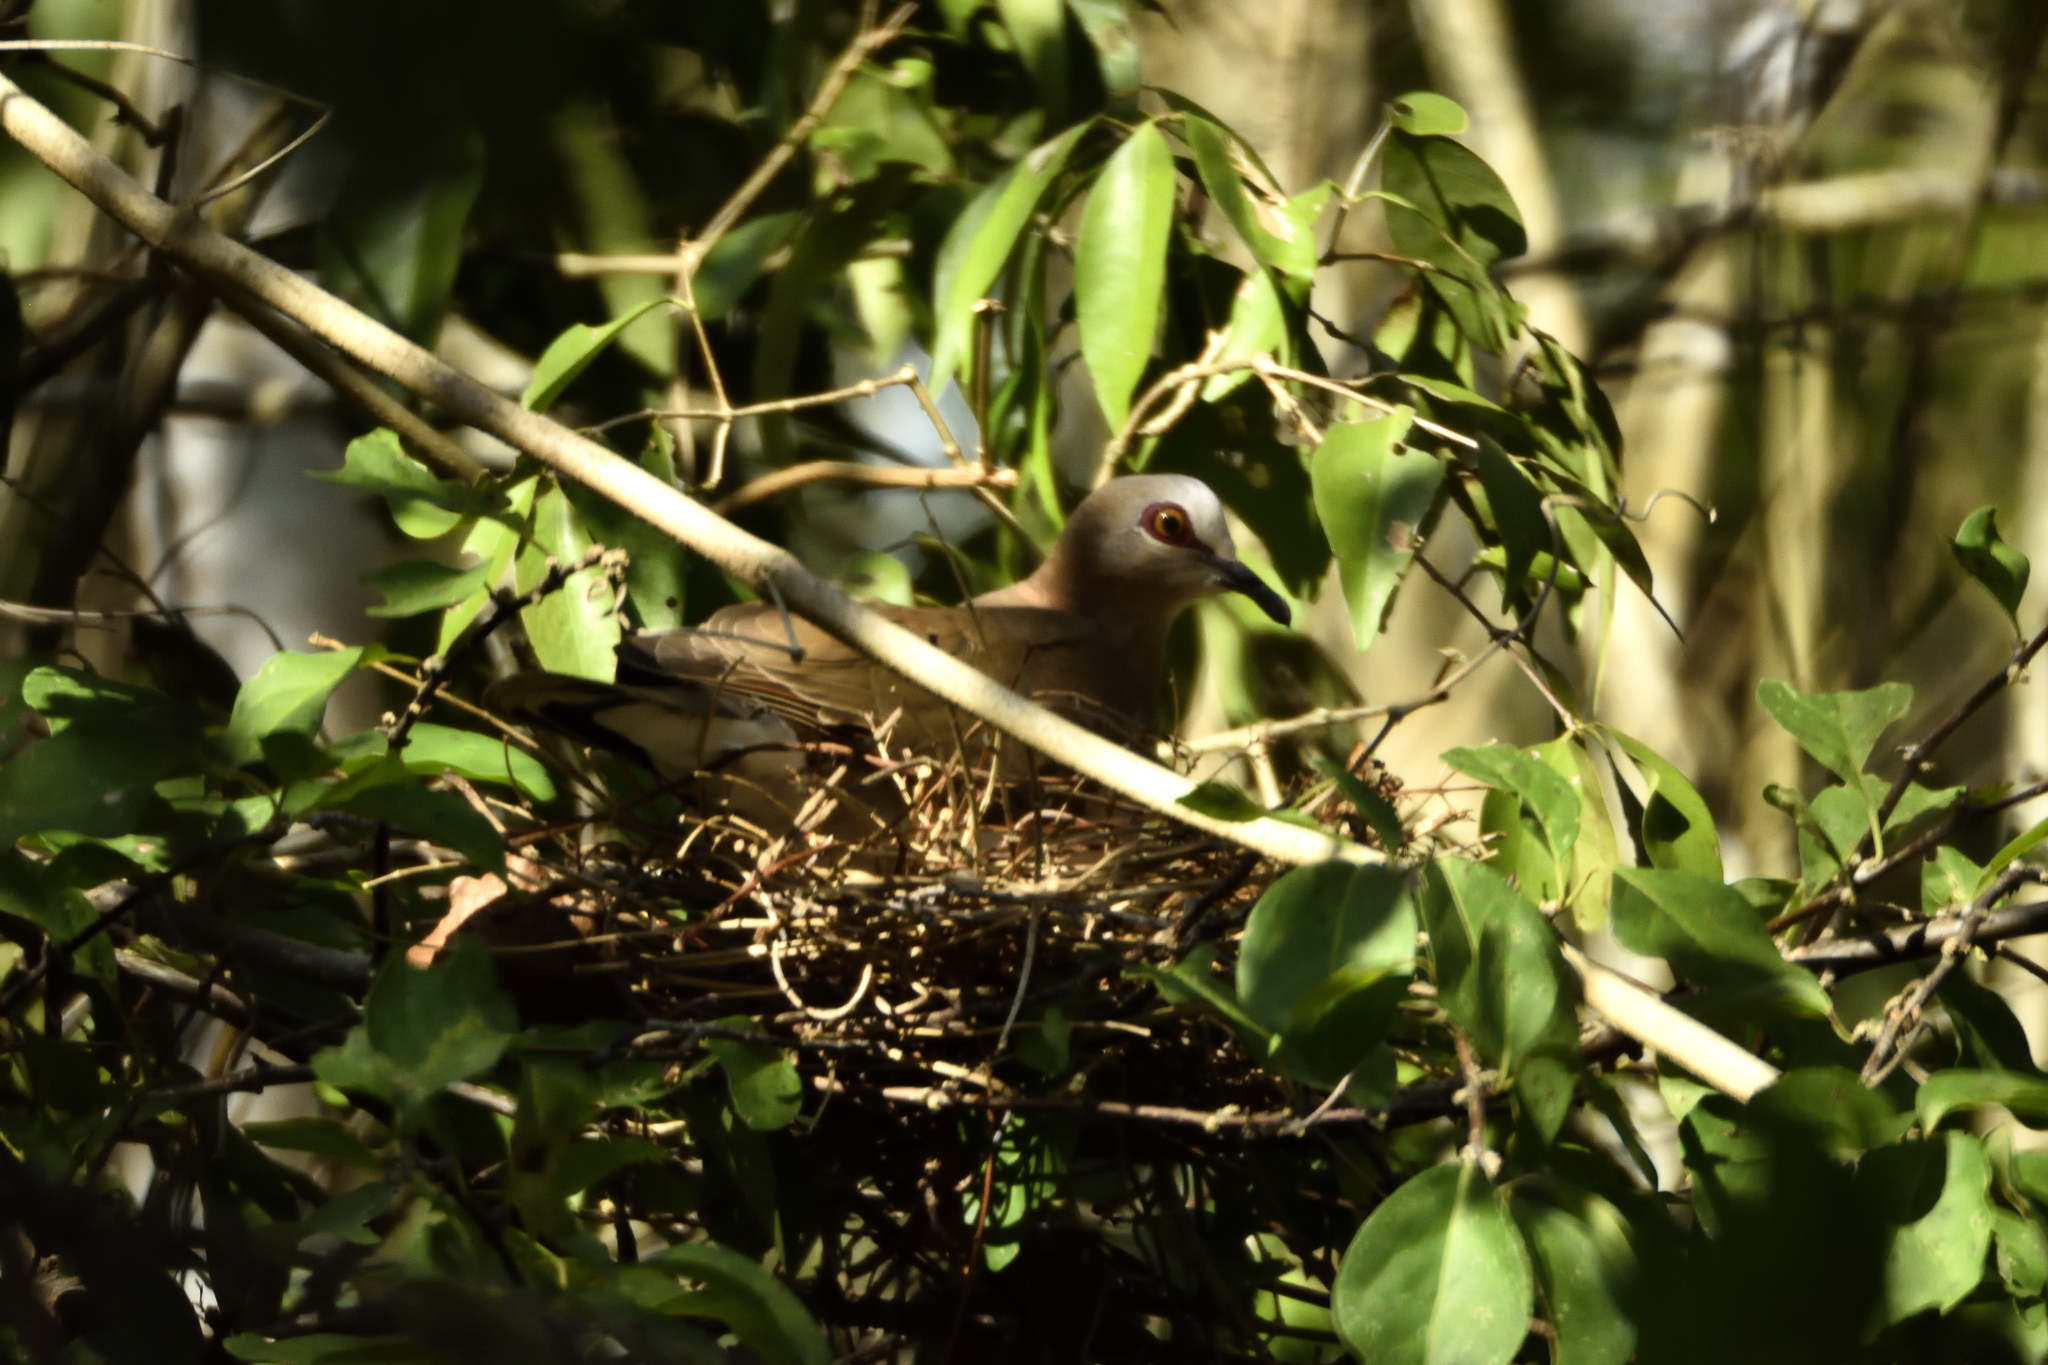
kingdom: Animalia
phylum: Chordata
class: Aves
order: Columbiformes
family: Columbidae
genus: Leptotila
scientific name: Leptotila verreauxi
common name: White-tipped dove
